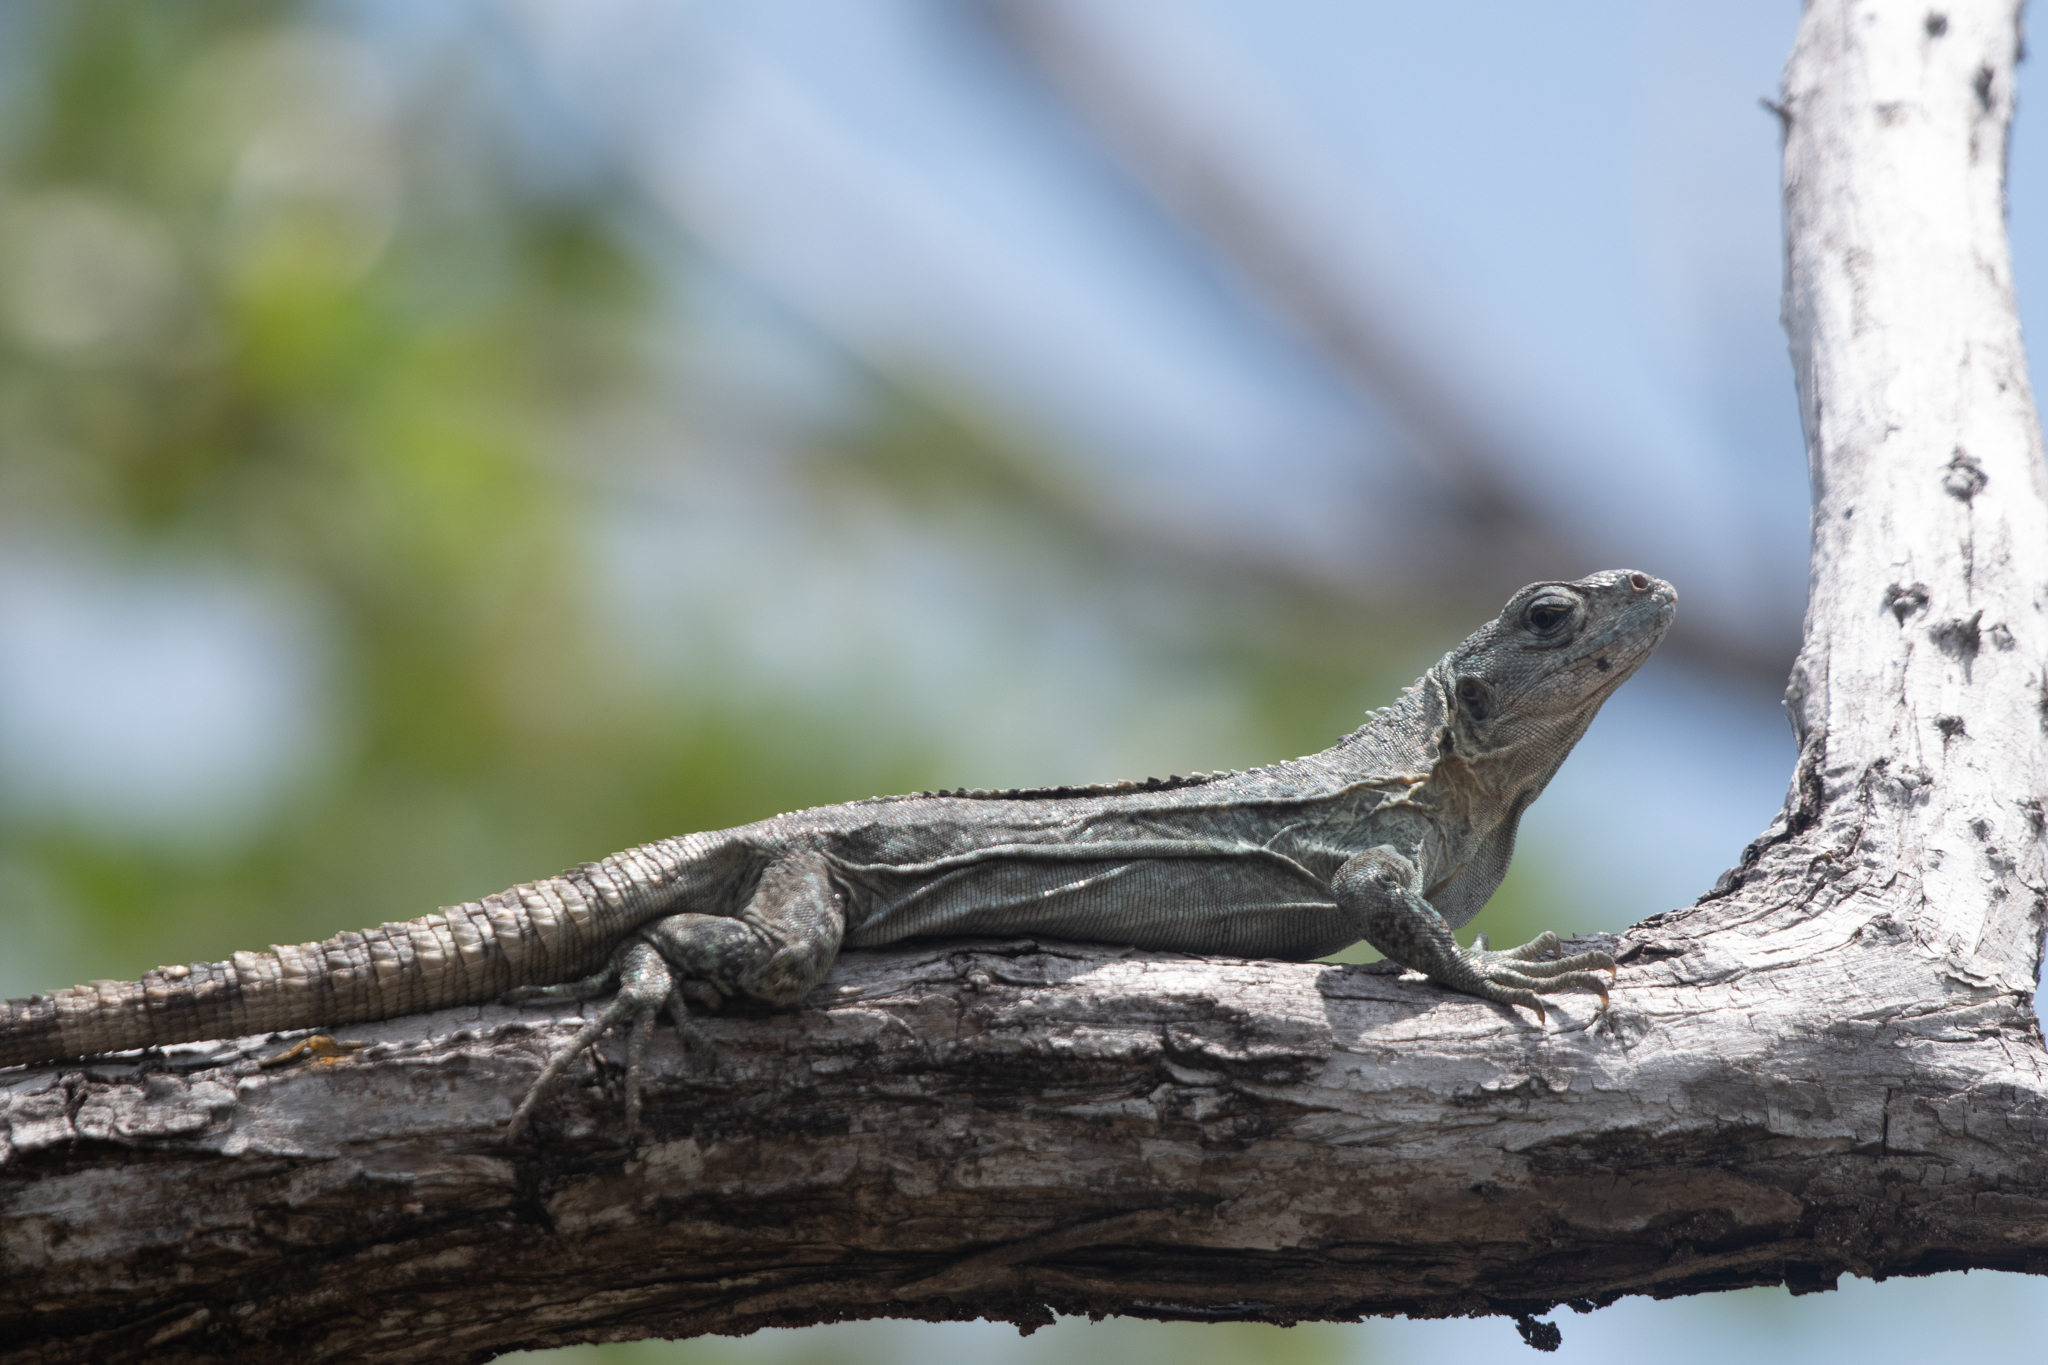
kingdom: Animalia
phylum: Chordata
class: Squamata
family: Iguanidae
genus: Ctenosaura
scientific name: Ctenosaura bakeri
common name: Utila spiny-tailed iguana
